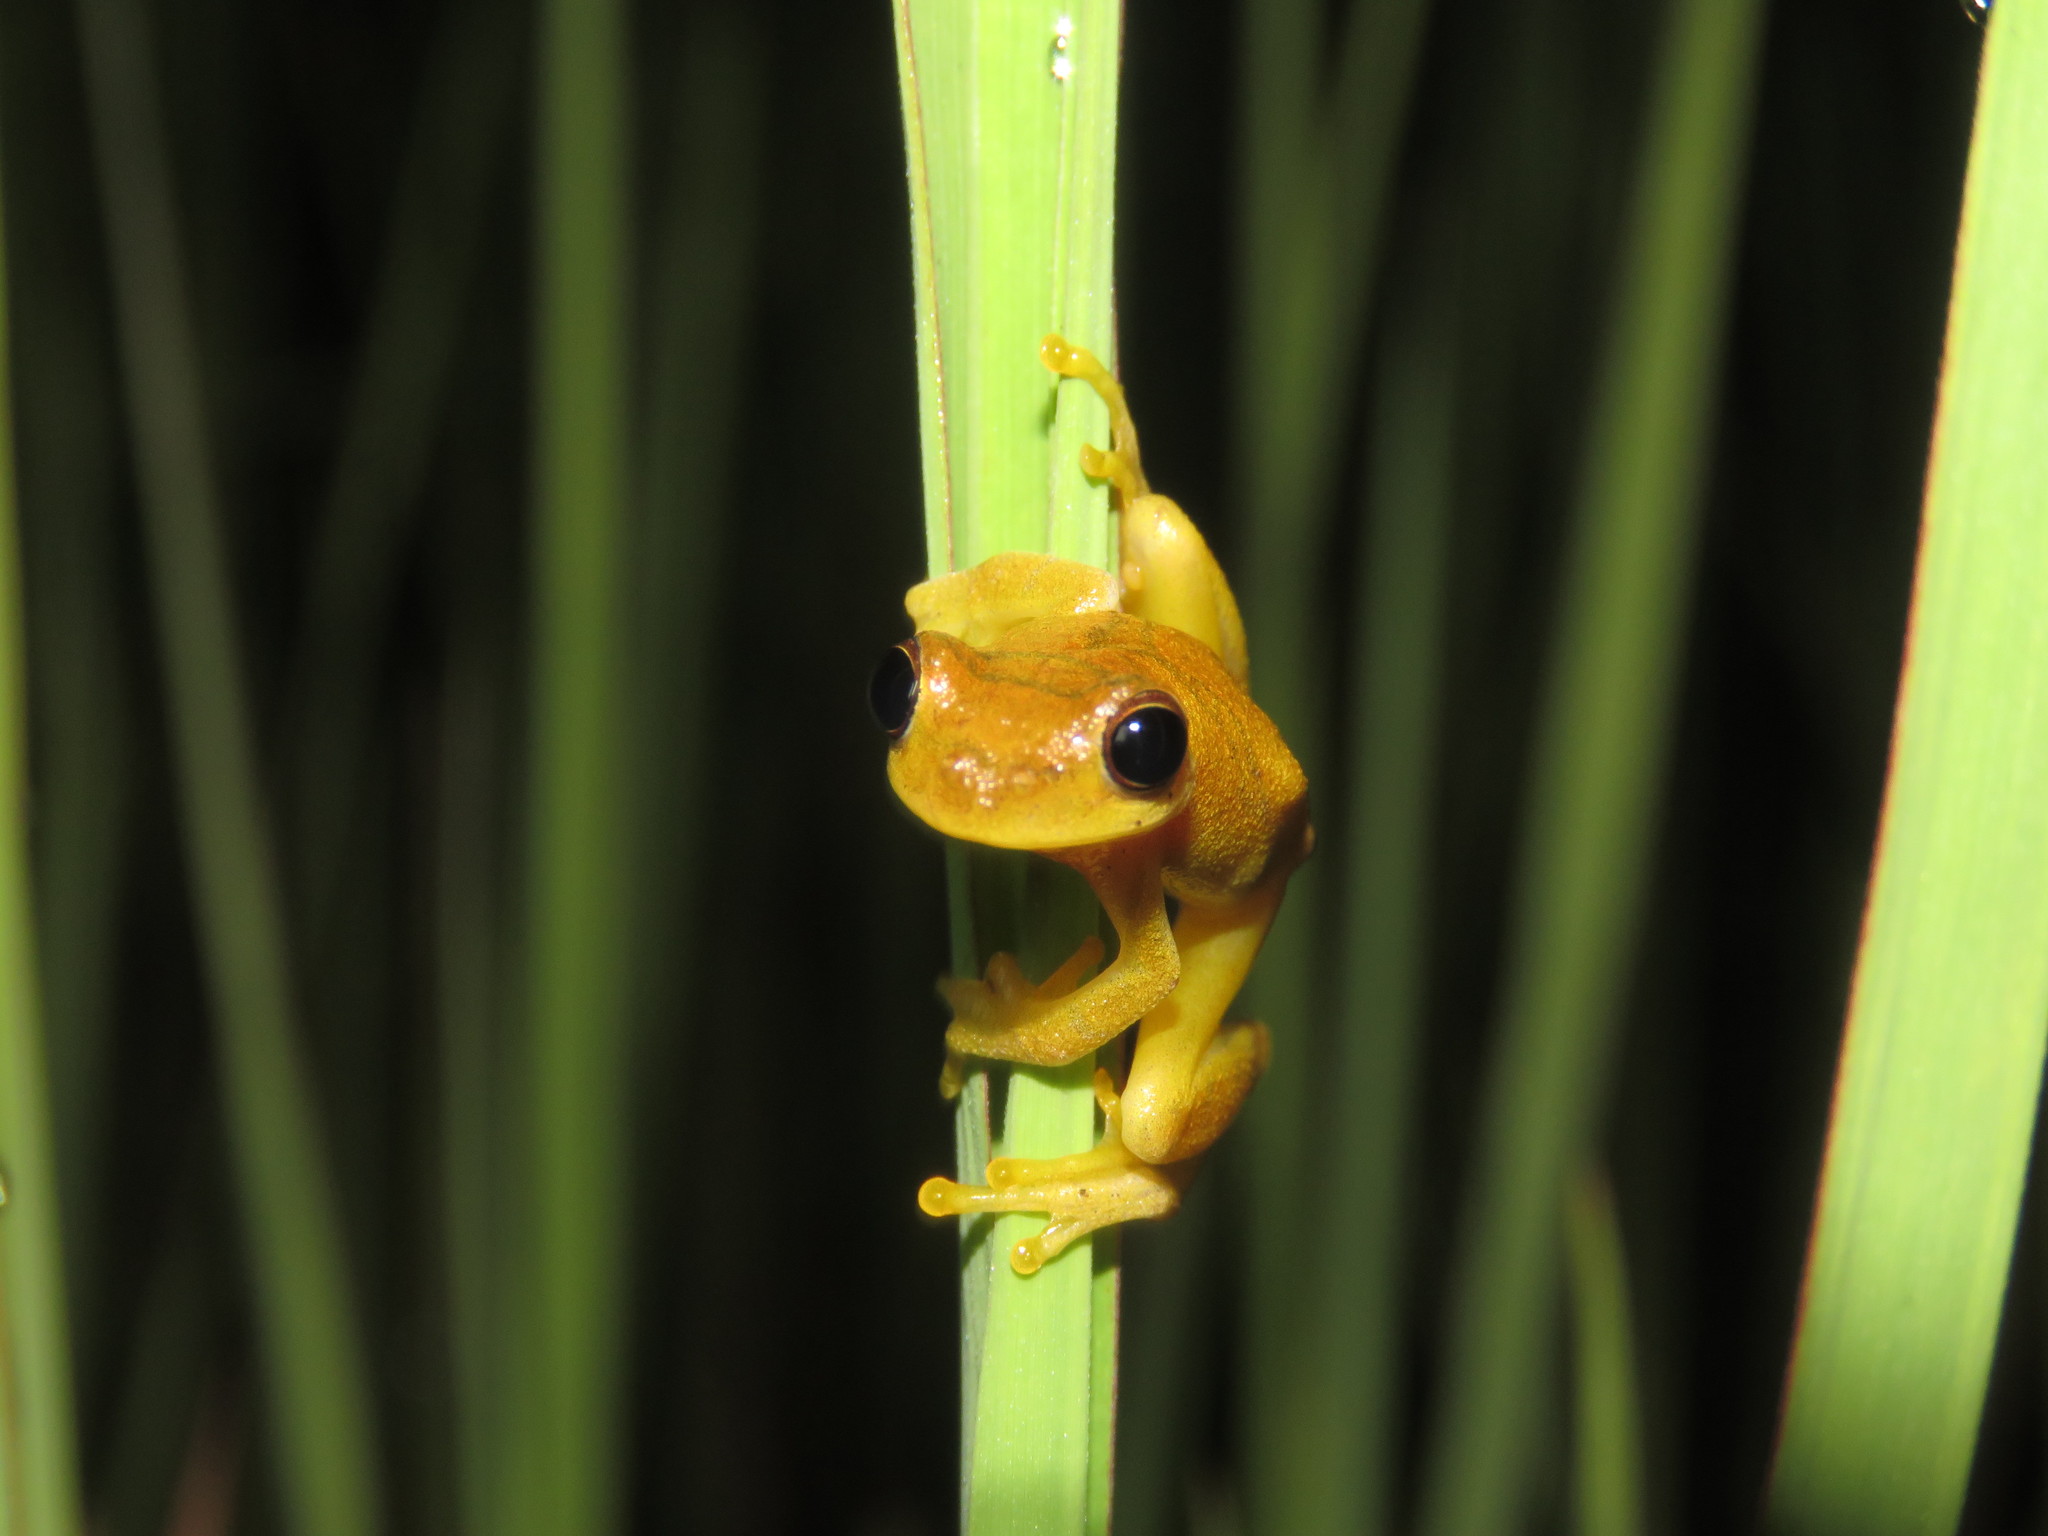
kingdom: Animalia
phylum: Chordata
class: Amphibia
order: Anura
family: Hylidae
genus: Dendropsophus
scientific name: Dendropsophus minutus
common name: Lesser treefrog
